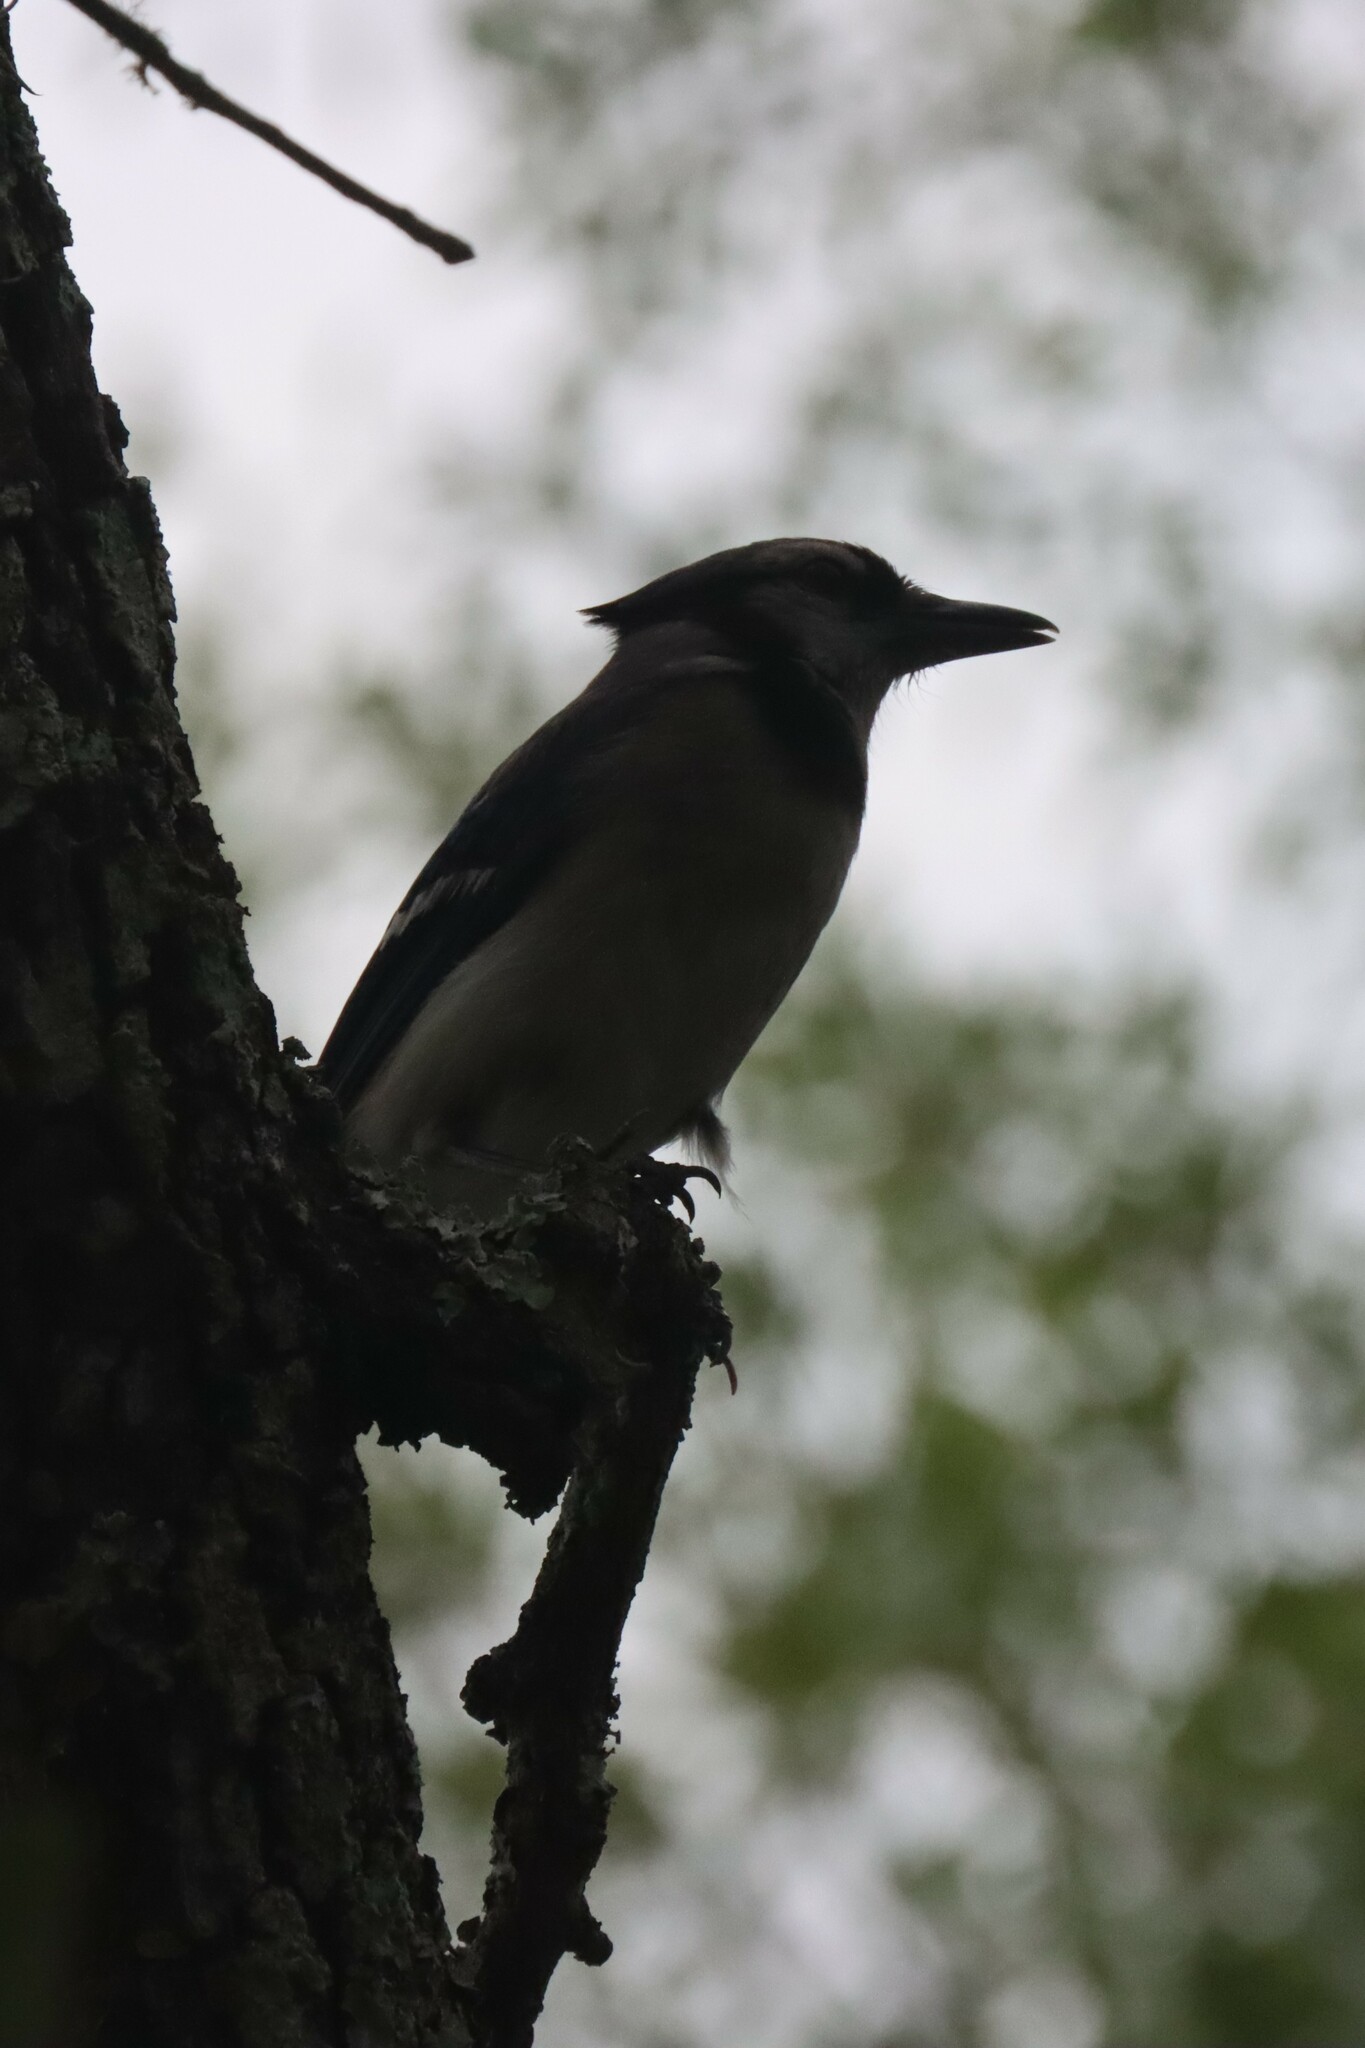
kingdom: Animalia
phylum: Chordata
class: Aves
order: Passeriformes
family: Corvidae
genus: Cyanocitta
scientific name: Cyanocitta cristata
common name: Blue jay
